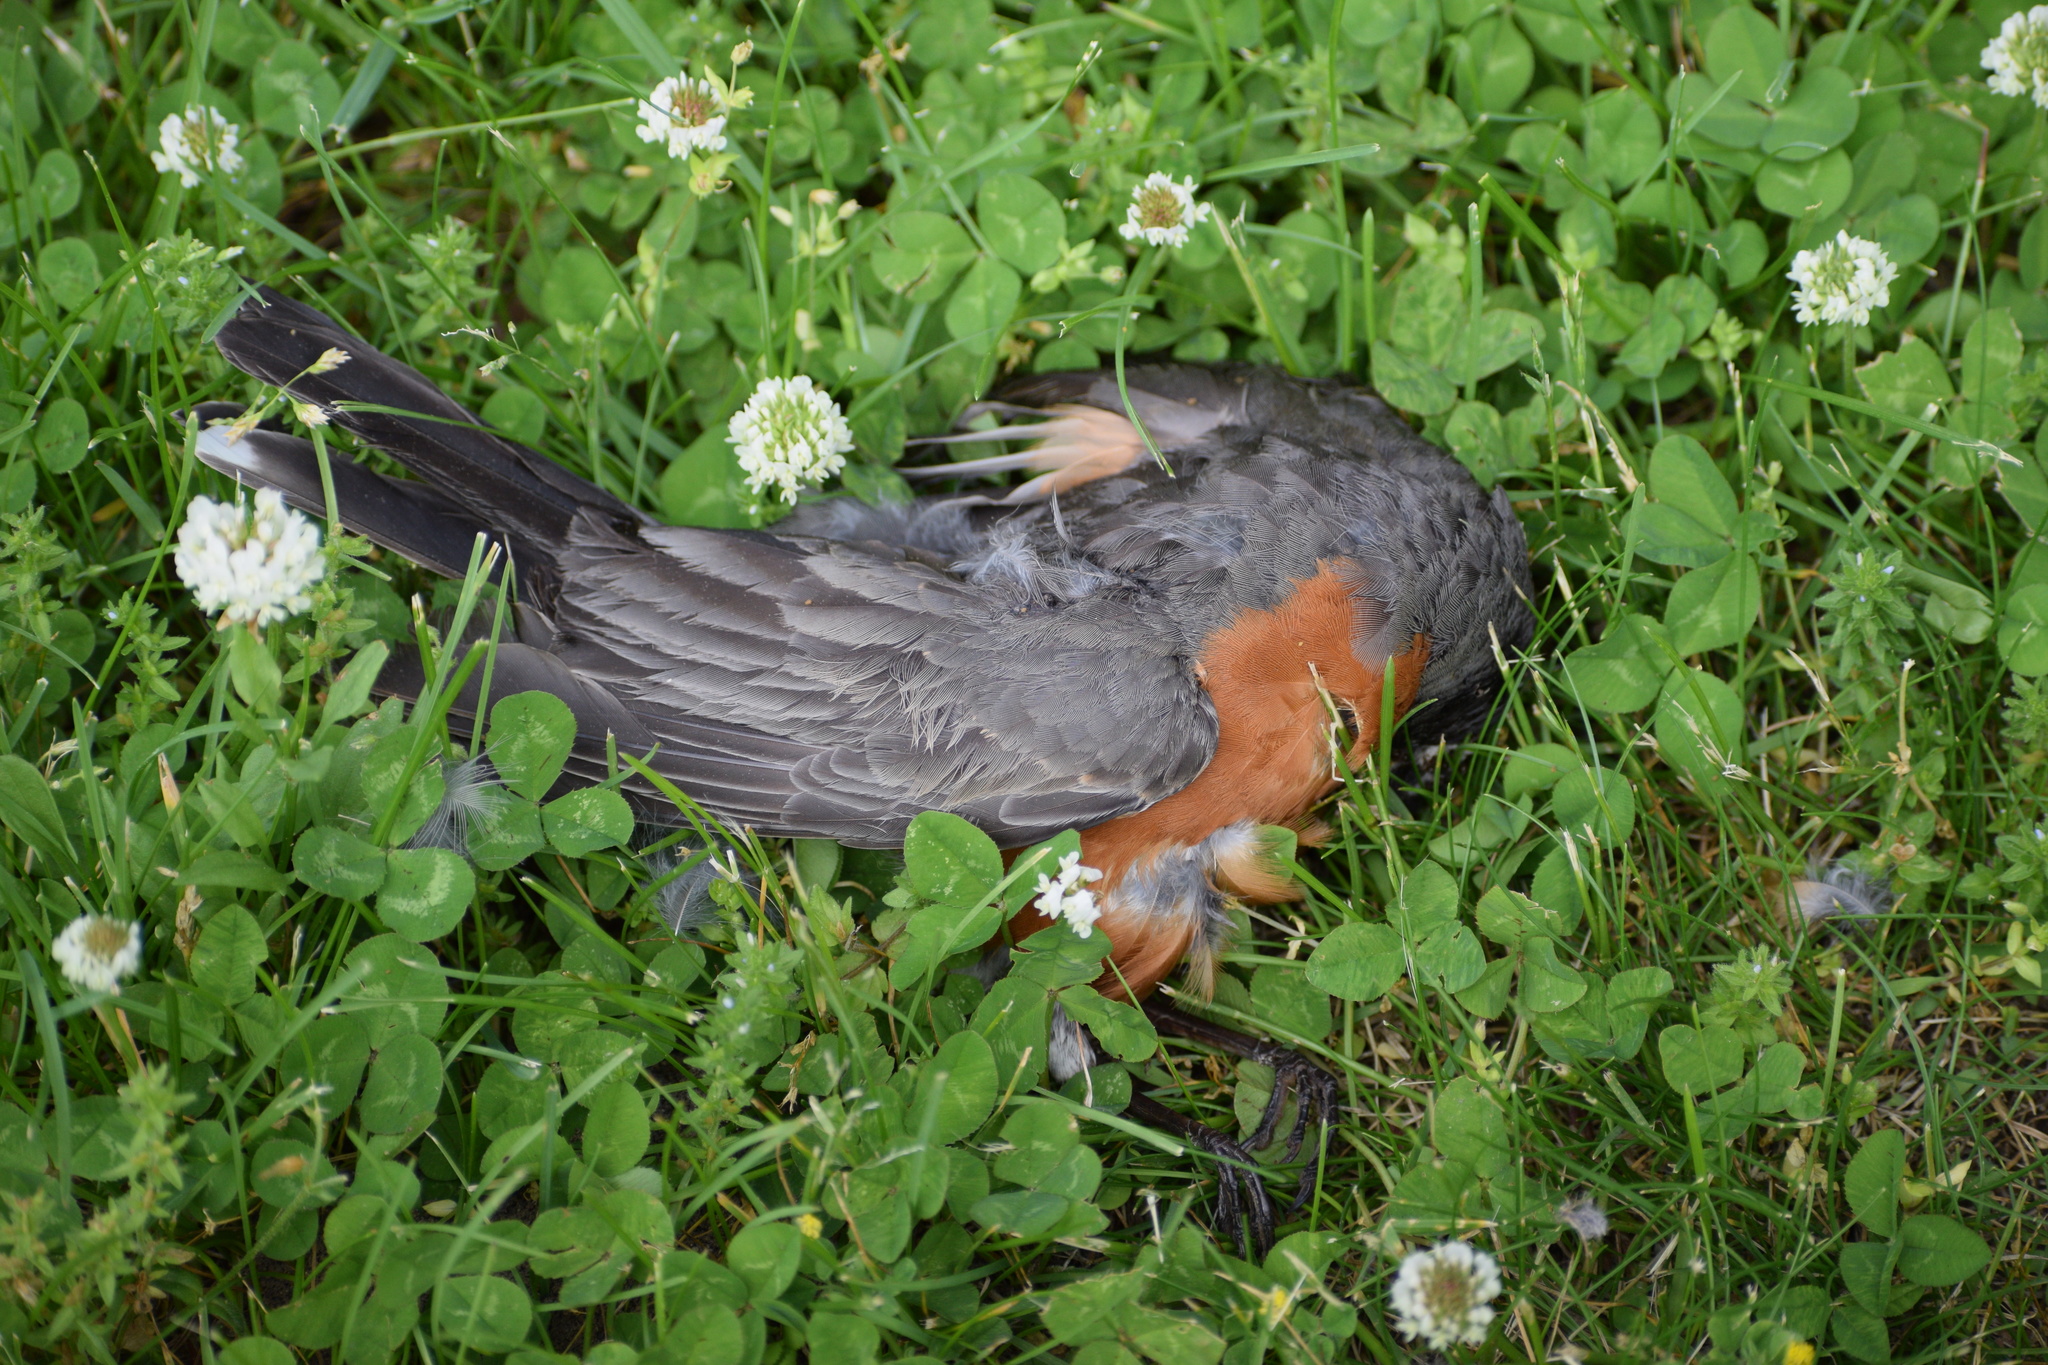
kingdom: Animalia
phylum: Chordata
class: Aves
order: Passeriformes
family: Turdidae
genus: Turdus
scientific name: Turdus migratorius
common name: American robin
